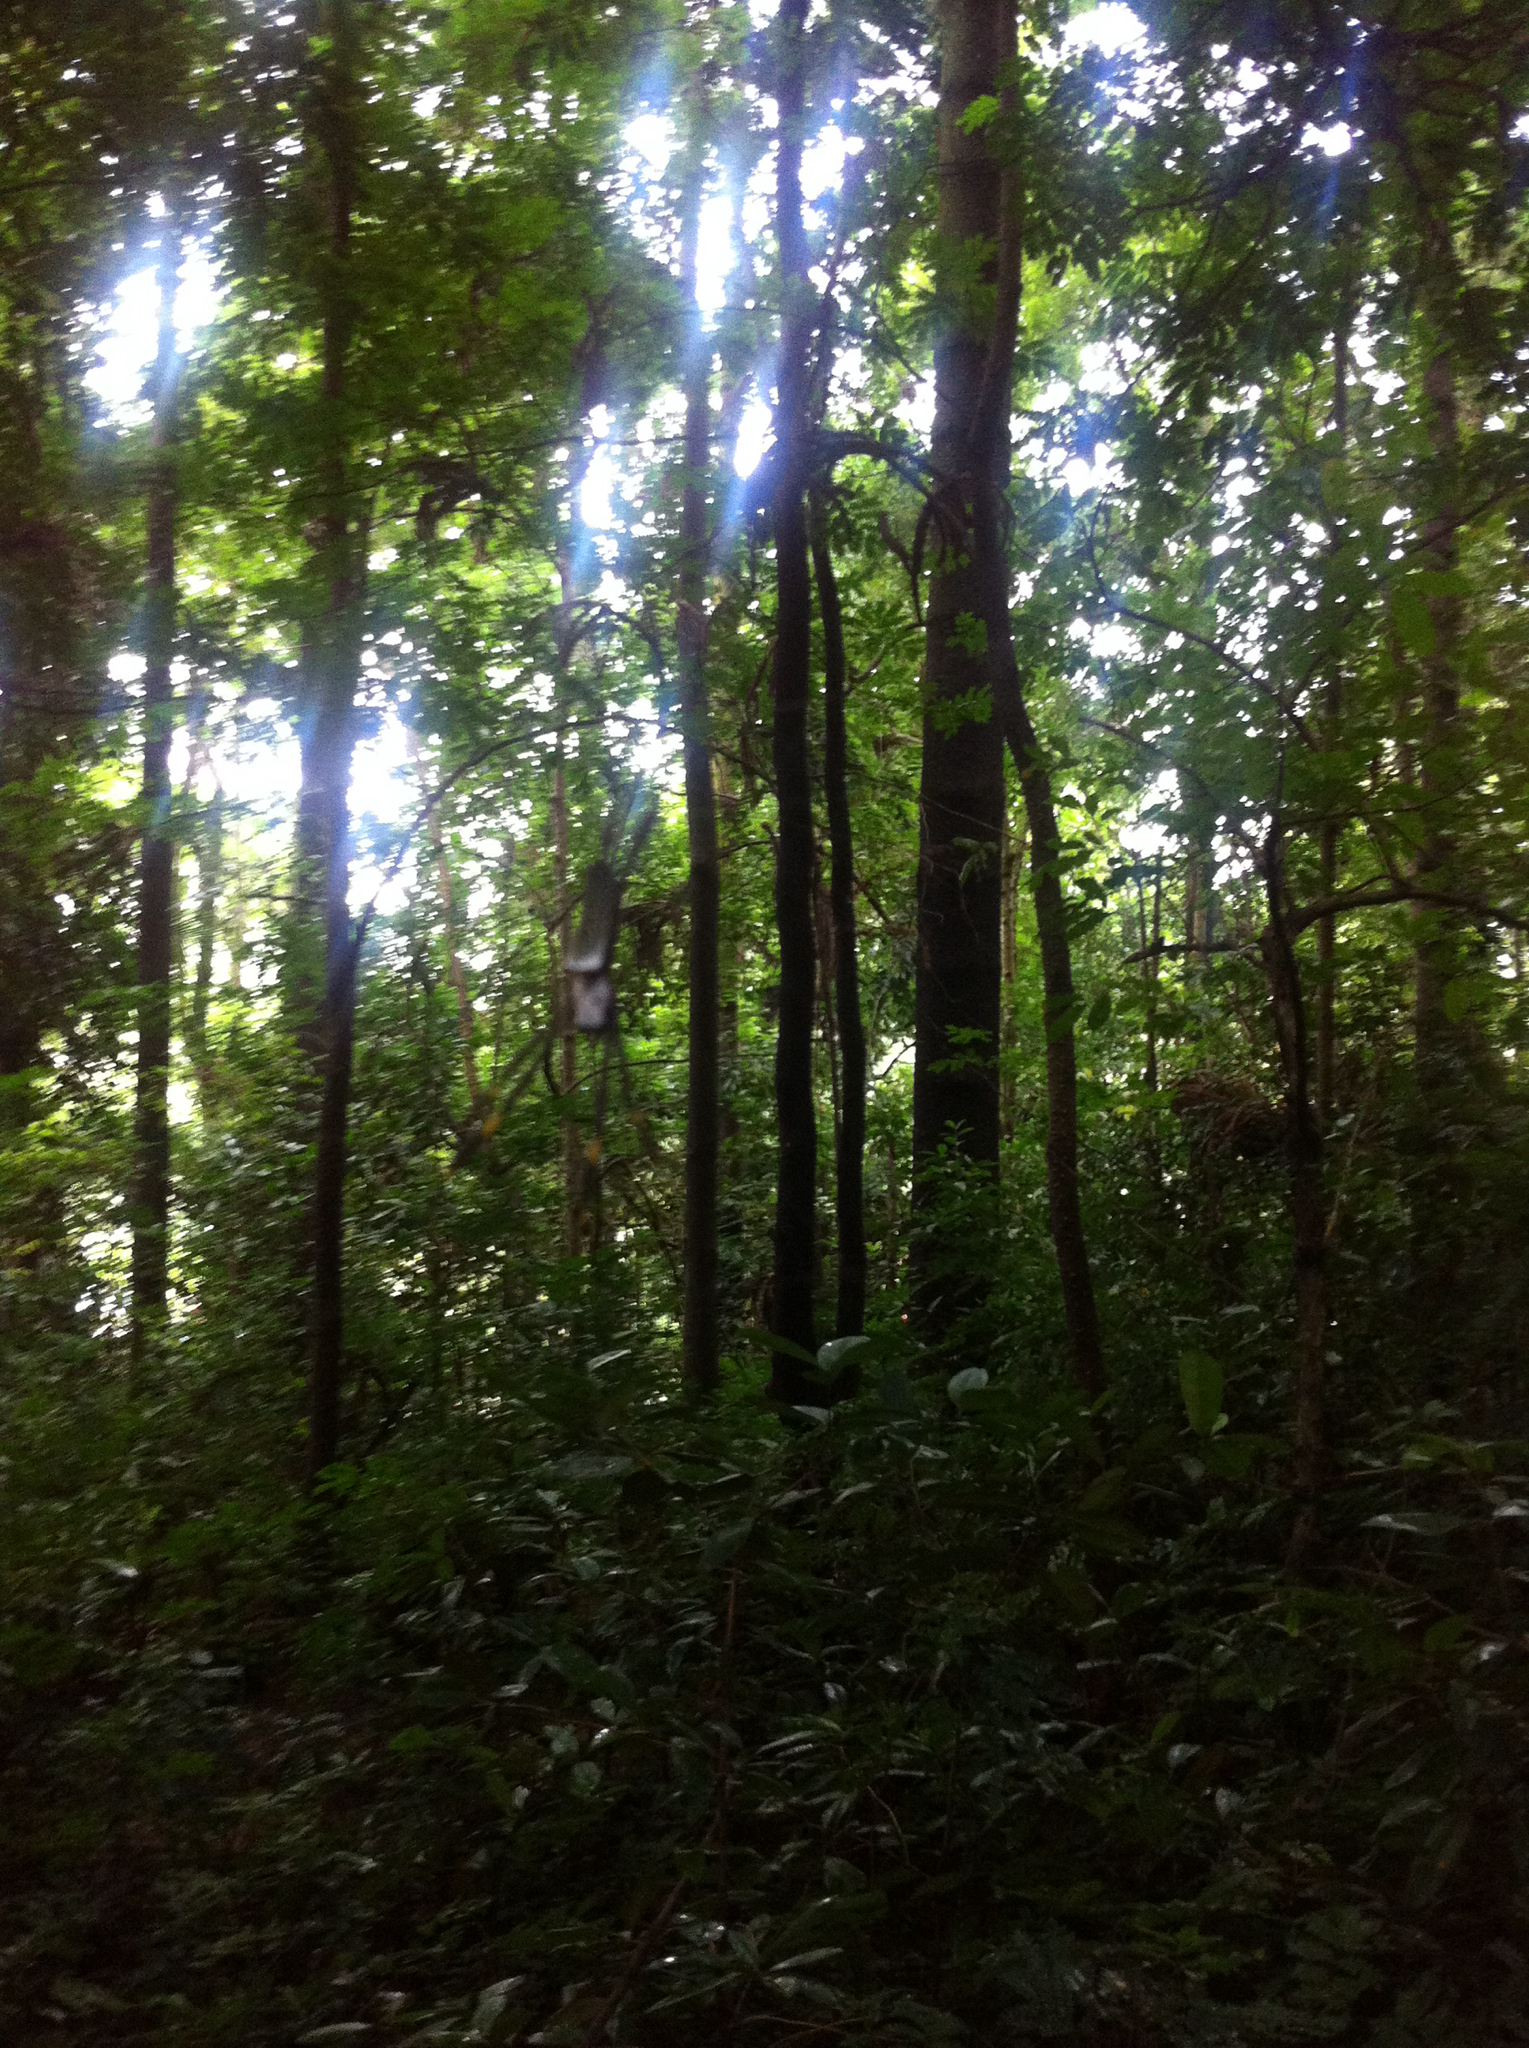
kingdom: Animalia
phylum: Arthropoda
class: Arachnida
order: Araneae
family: Araneidae
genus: Trichonephila
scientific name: Trichonephila clavipes
